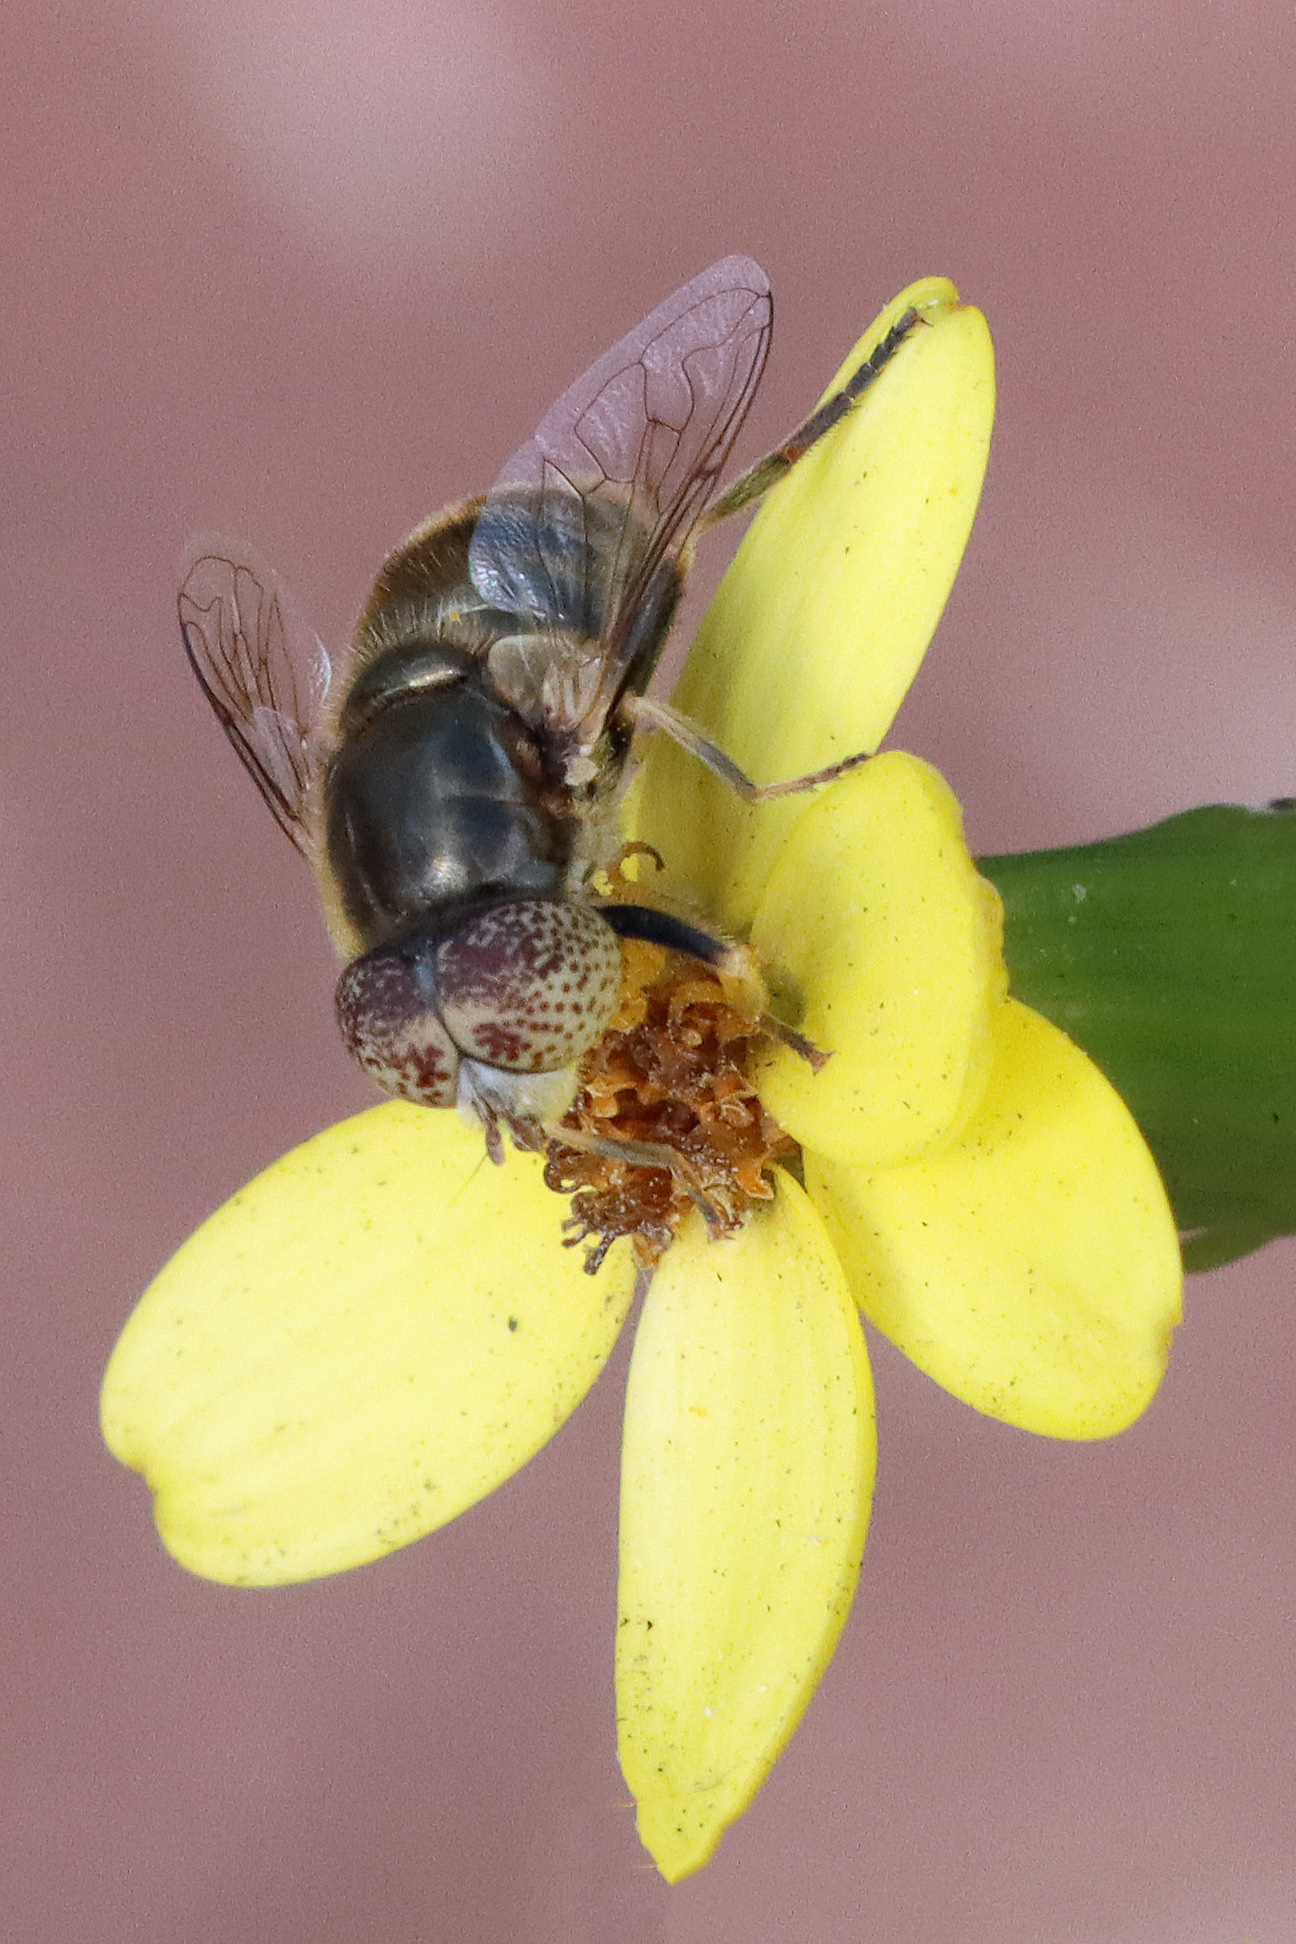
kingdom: Animalia
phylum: Arthropoda
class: Insecta
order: Diptera
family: Syrphidae
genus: Eristalinus
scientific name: Eristalinus aeneus
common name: Syrphid fly
